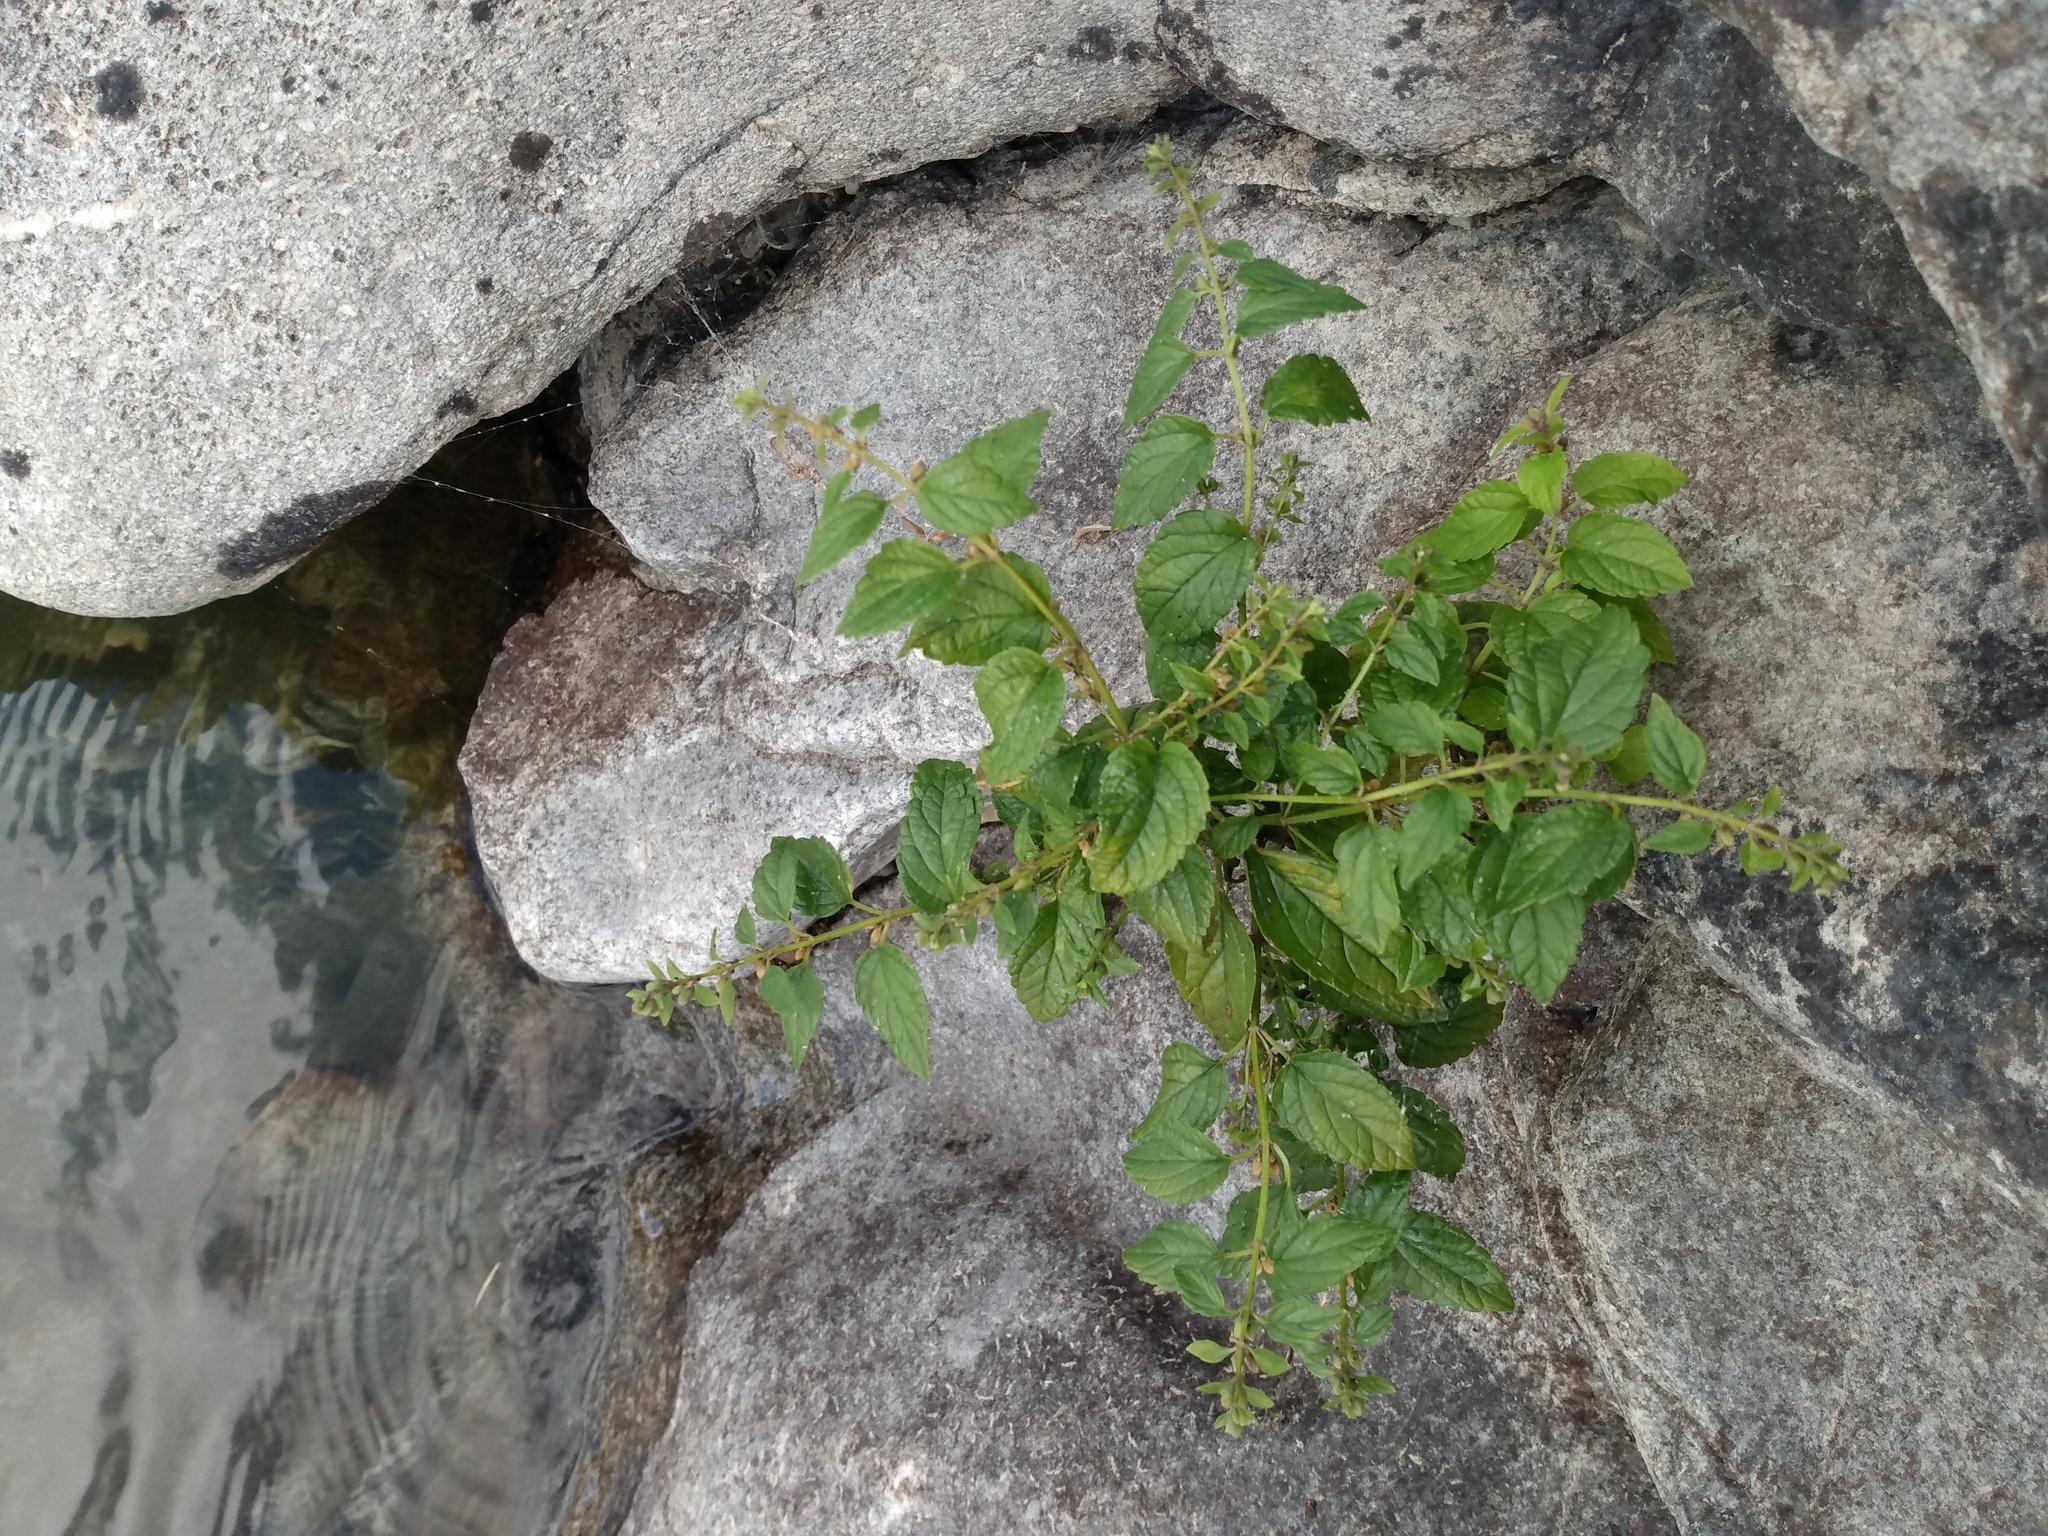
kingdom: Plantae
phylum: Tracheophyta
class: Magnoliopsida
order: Lamiales
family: Lamiaceae
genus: Scutellaria
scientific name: Scutellaria lateriflora
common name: Blue skullcap
